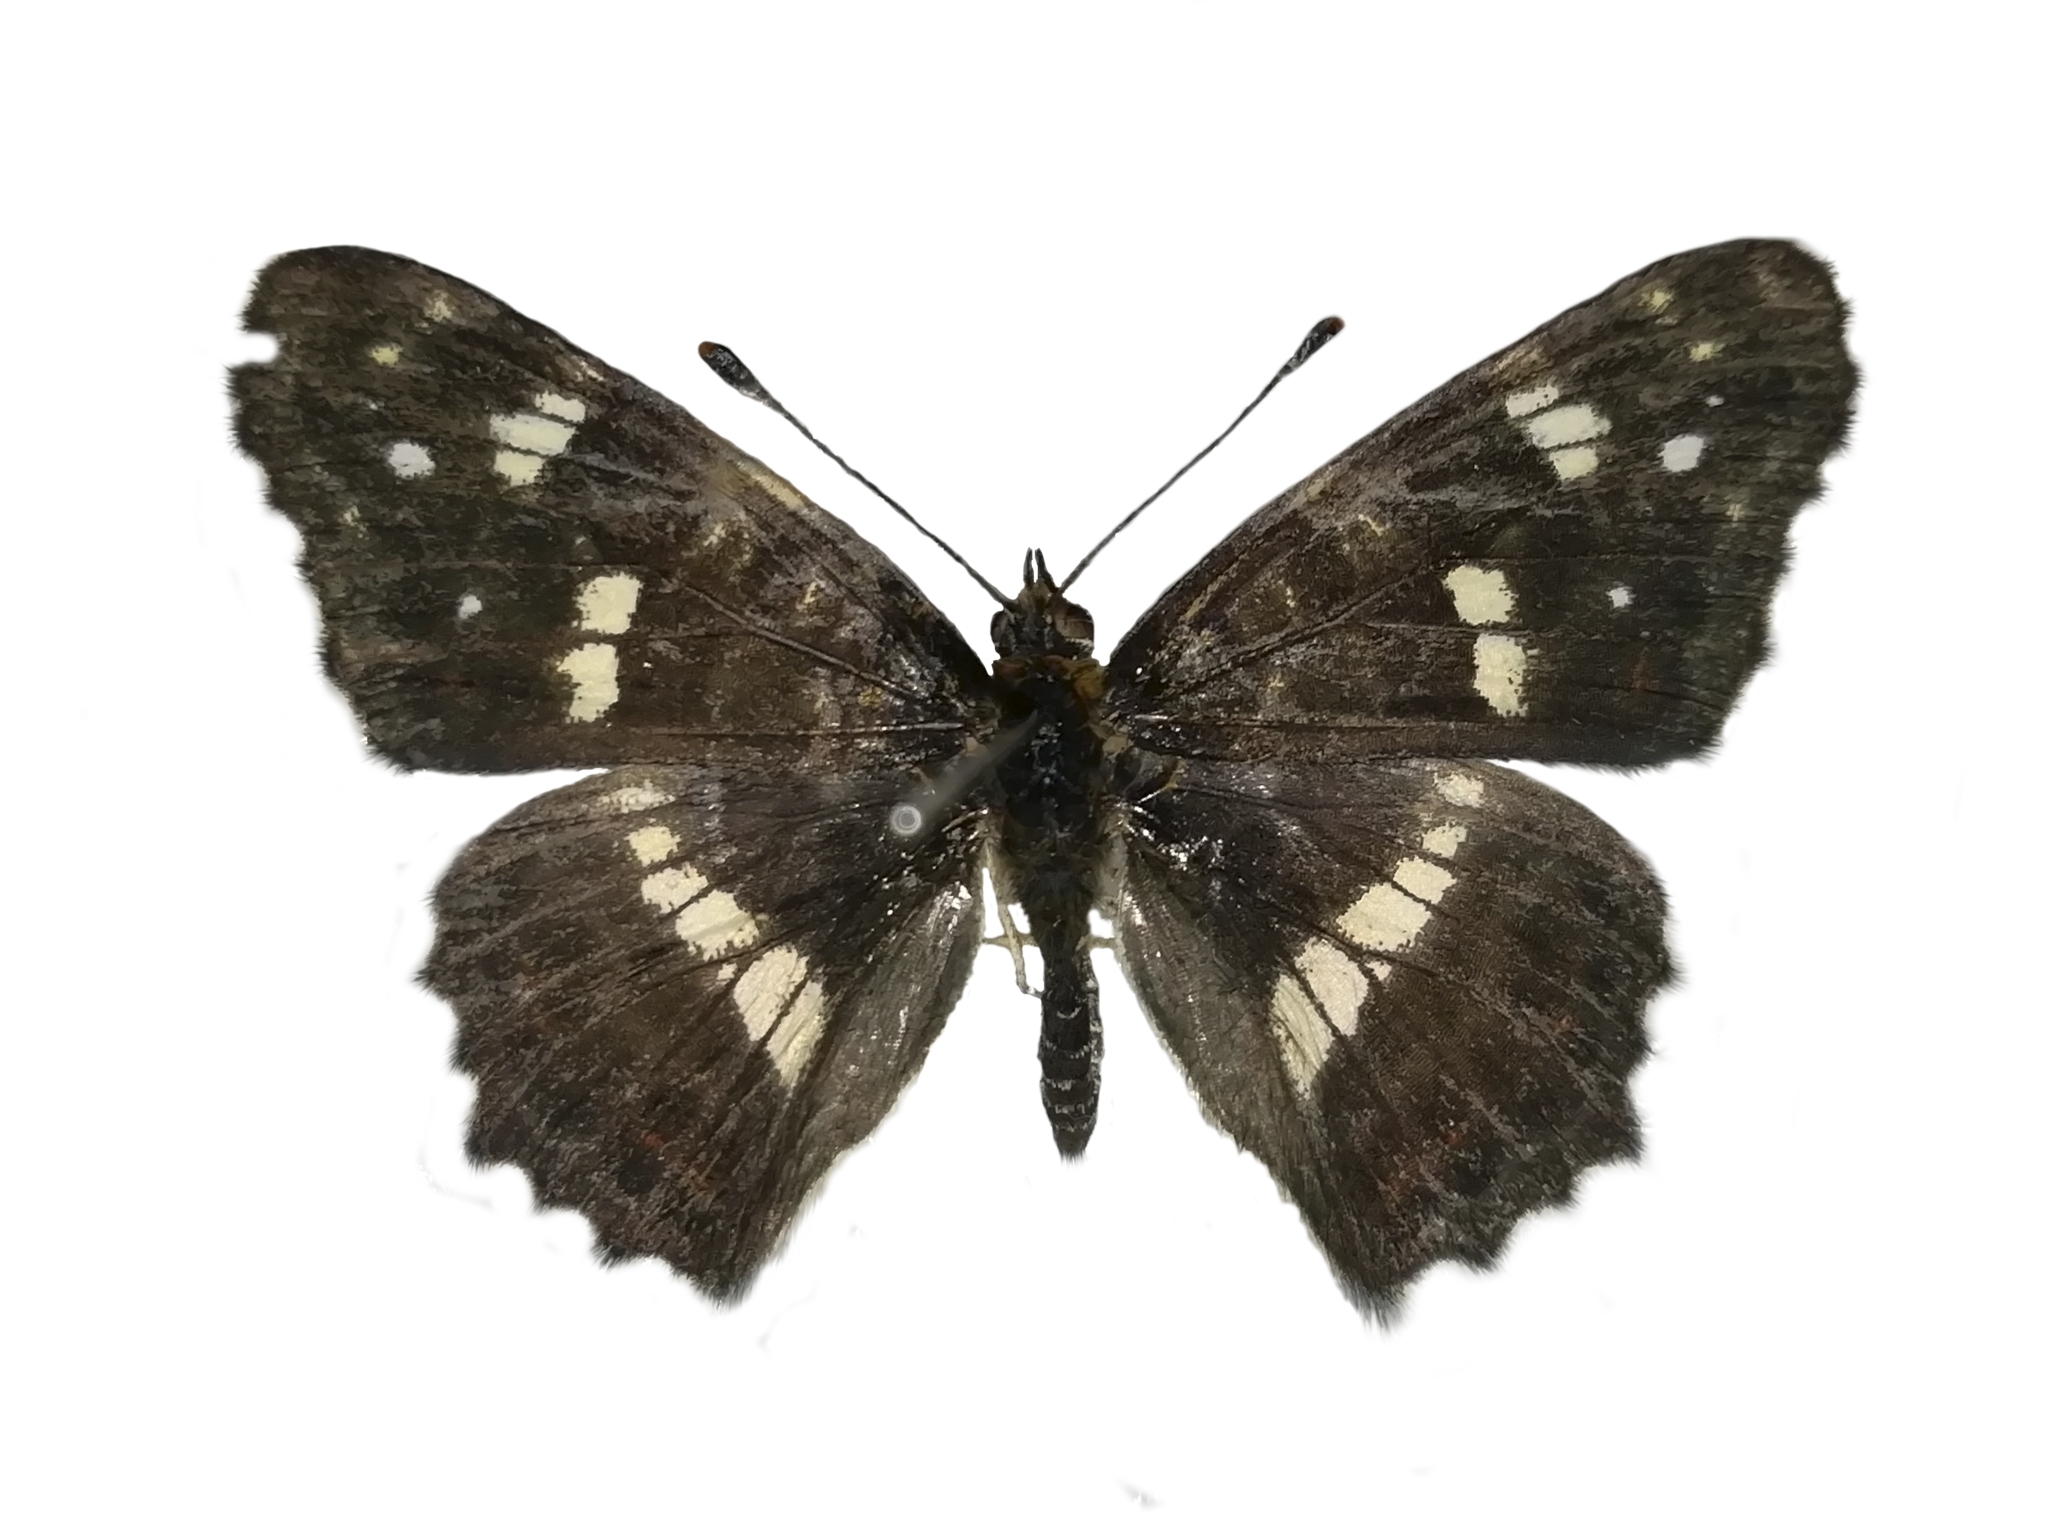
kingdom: Animalia
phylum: Arthropoda
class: Insecta
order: Lepidoptera
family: Nymphalidae
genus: Araschnia
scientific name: Araschnia levana
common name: Map butterfly
